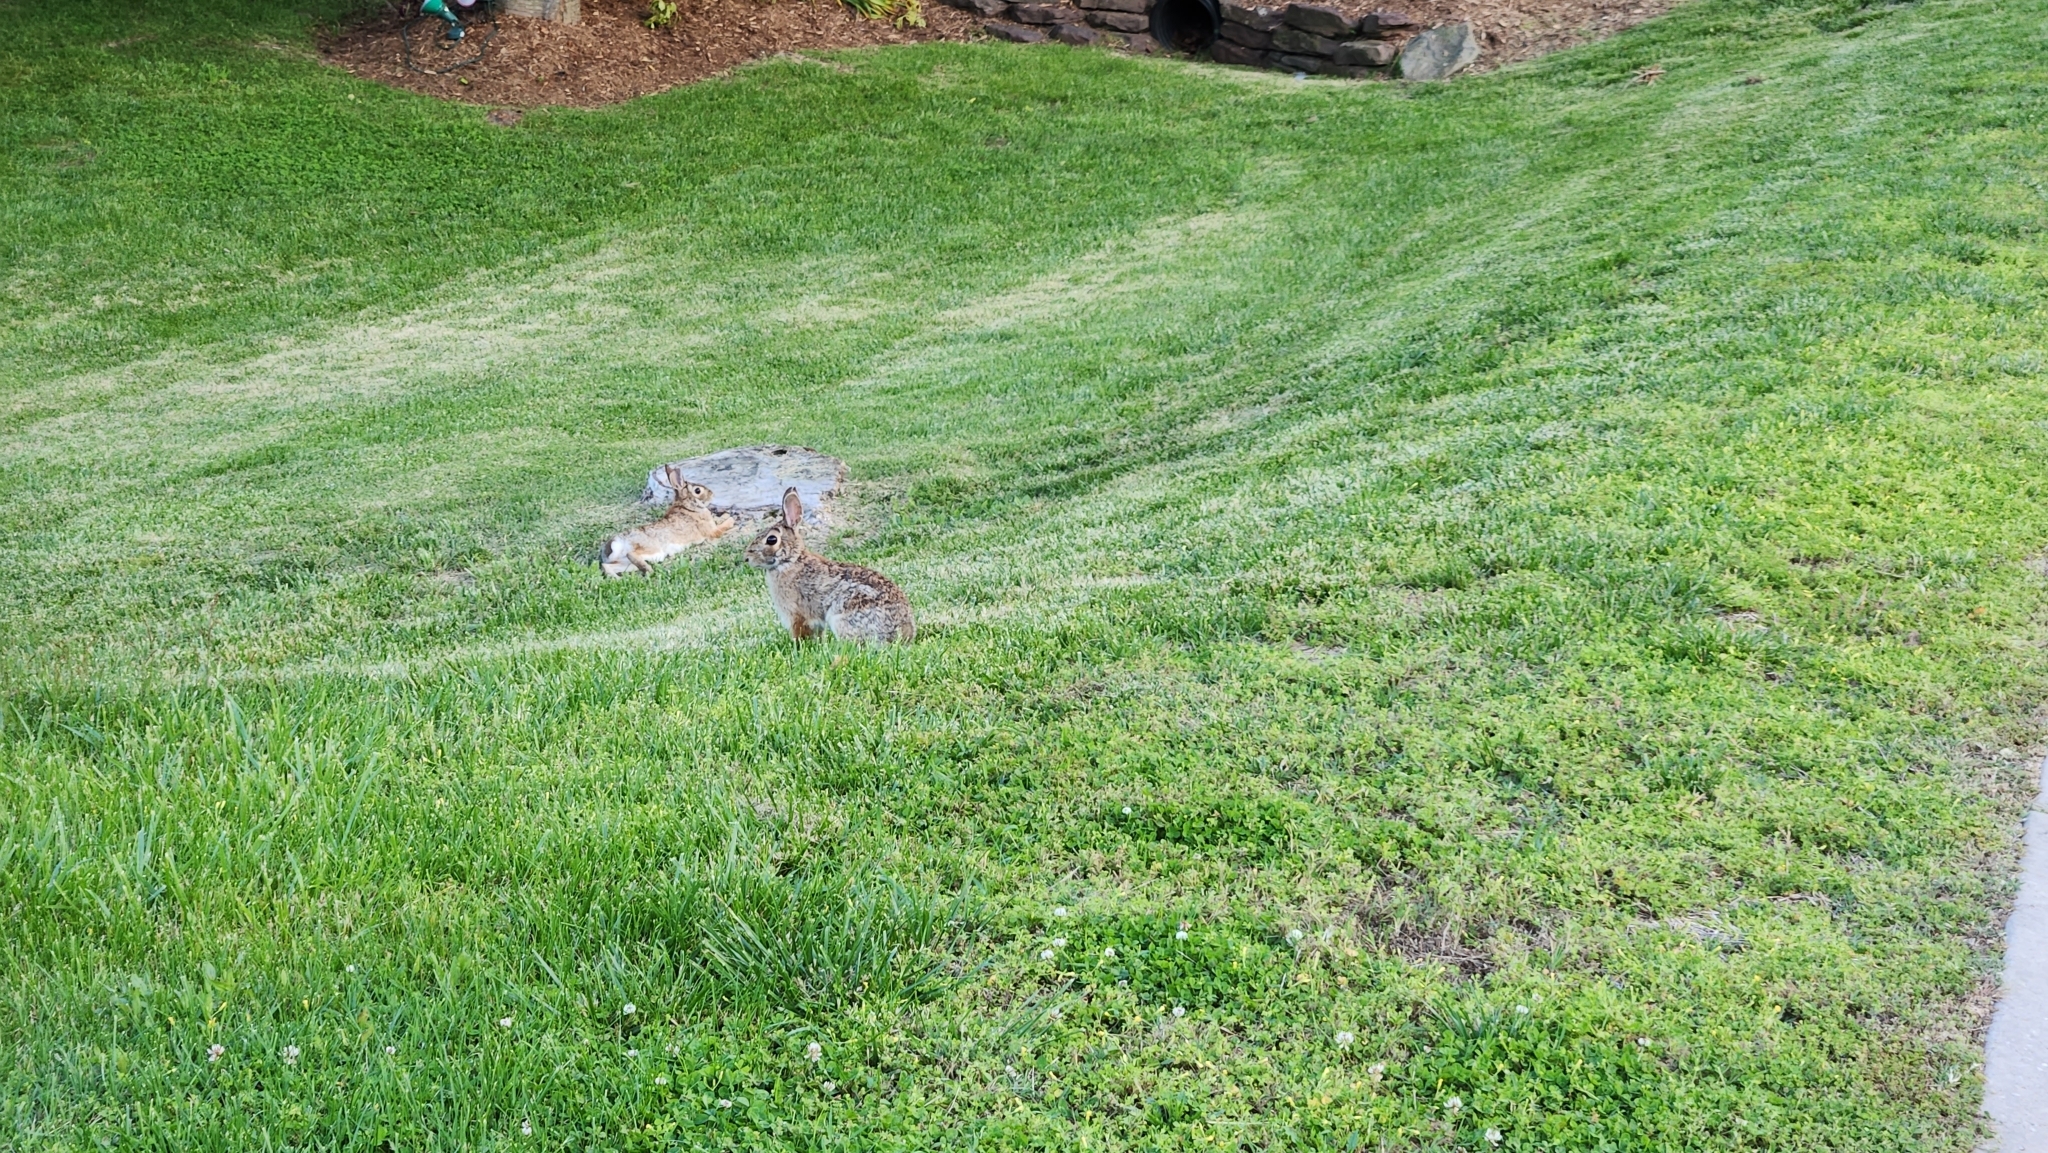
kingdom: Animalia
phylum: Chordata
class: Mammalia
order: Lagomorpha
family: Leporidae
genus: Sylvilagus
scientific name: Sylvilagus floridanus
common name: Eastern cottontail
